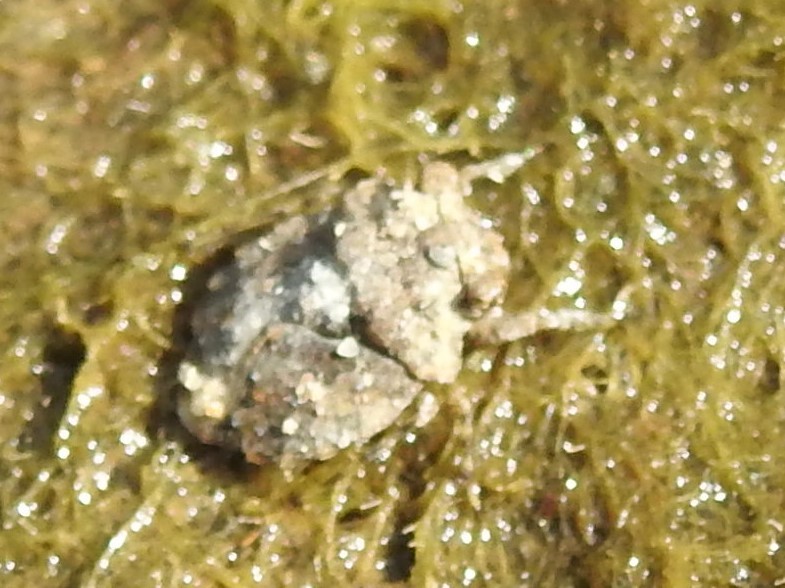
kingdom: Animalia
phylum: Arthropoda
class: Insecta
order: Hemiptera
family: Gelastocoridae
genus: Gelastocoris
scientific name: Gelastocoris oculatus
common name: Toad bug
